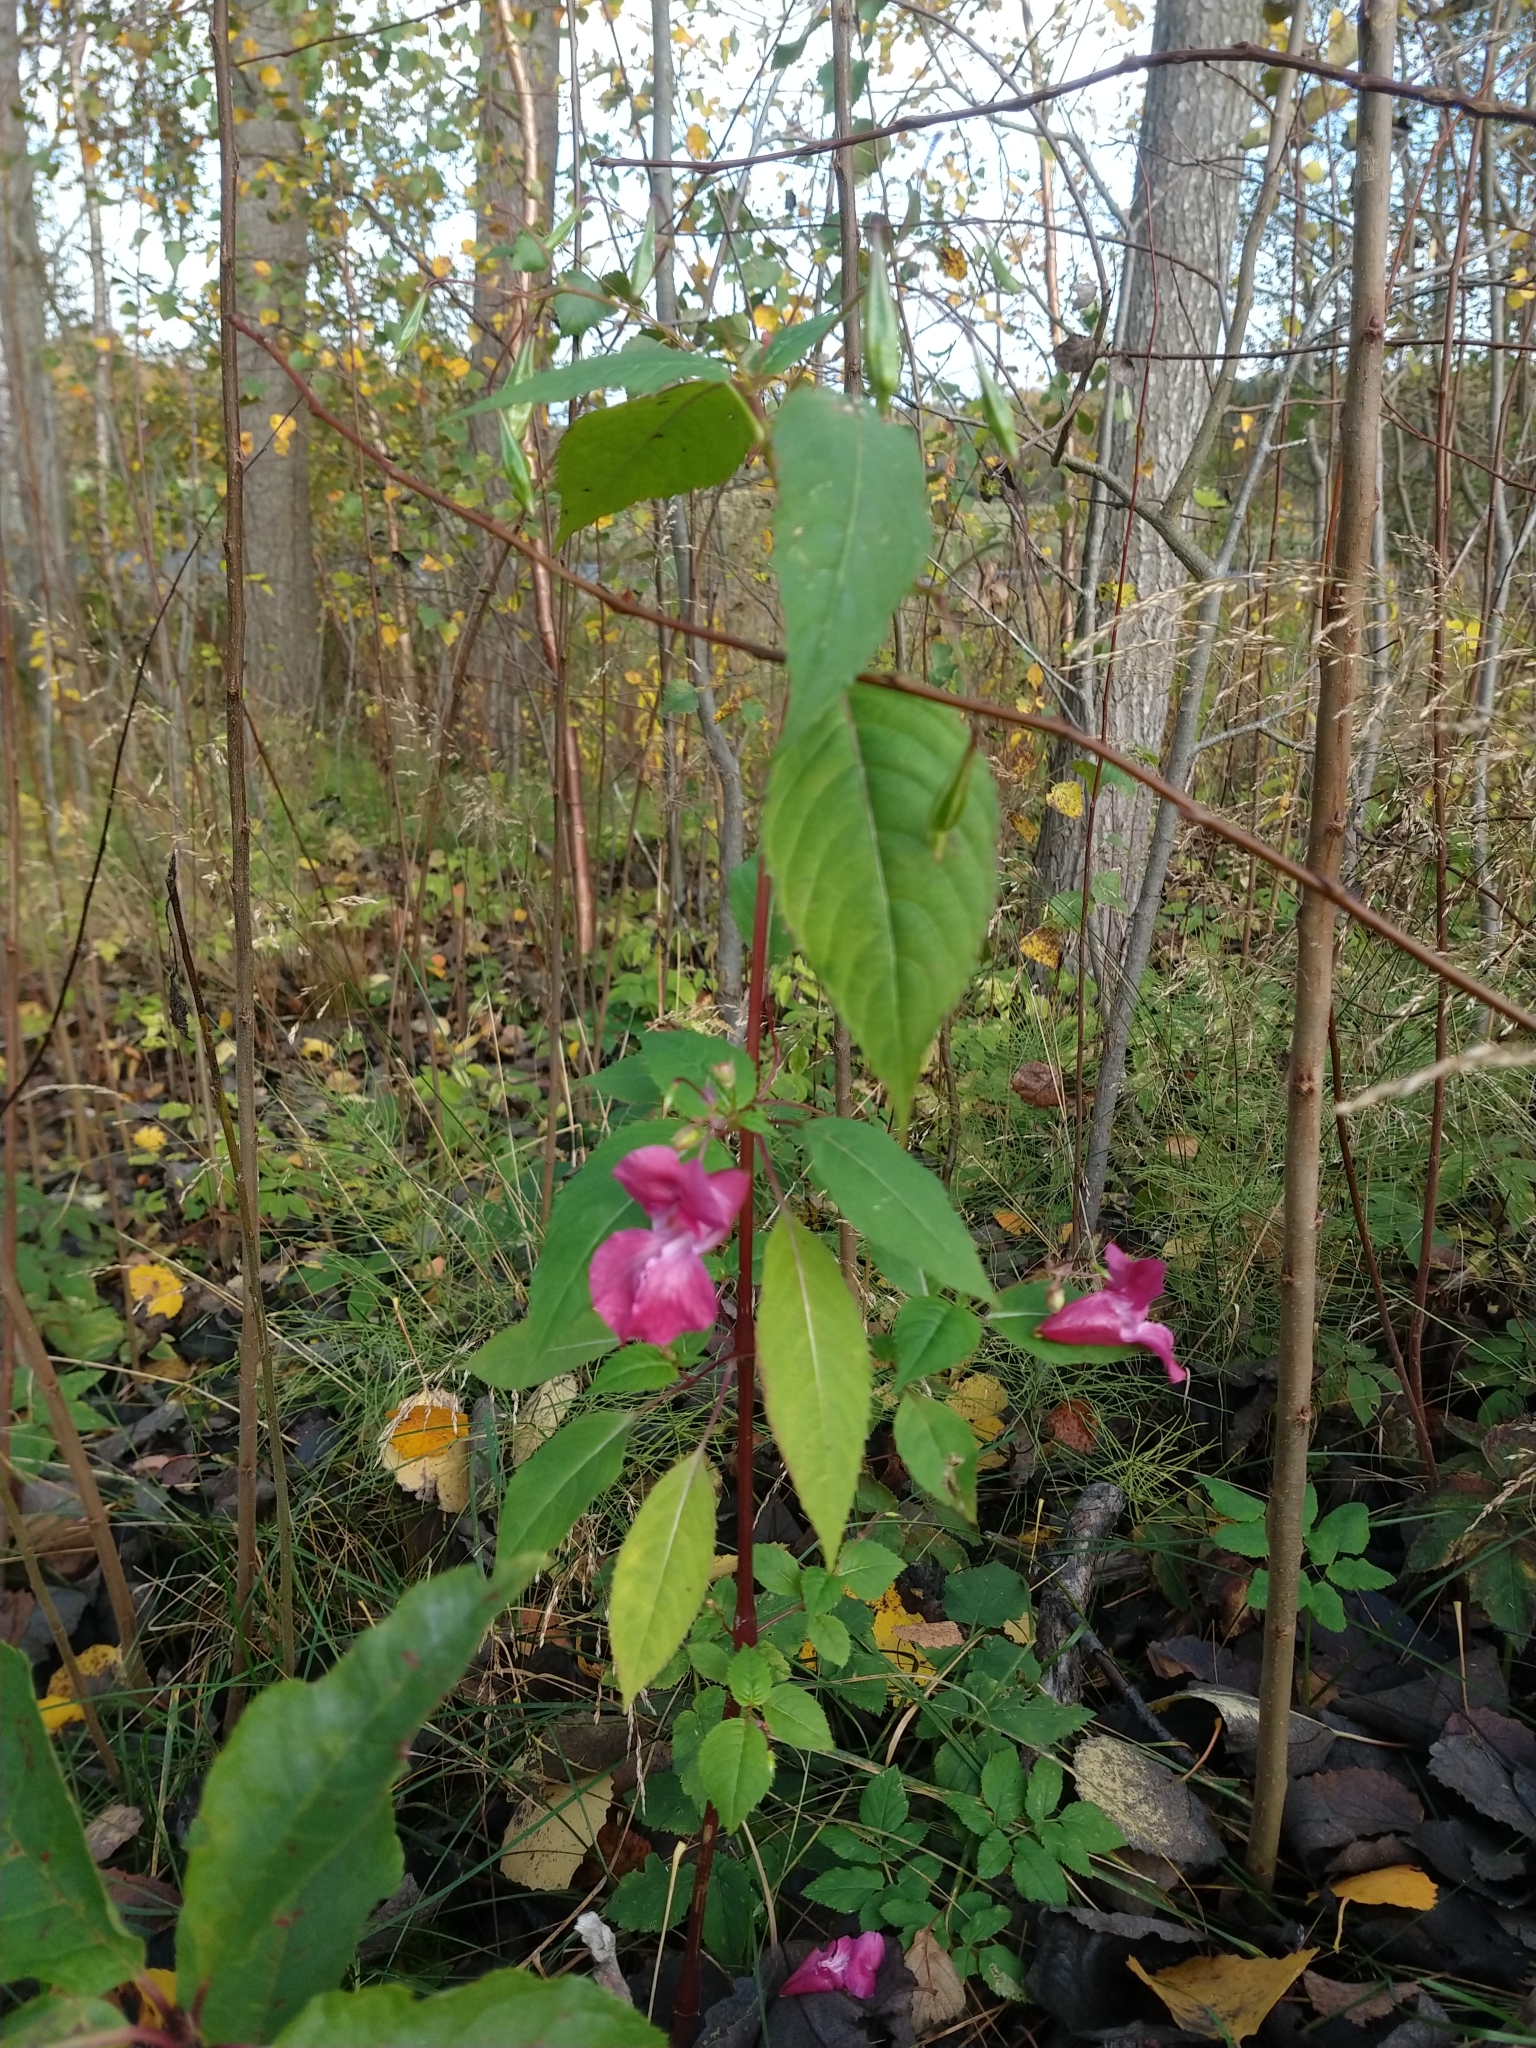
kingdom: Plantae
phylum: Tracheophyta
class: Magnoliopsida
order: Ericales
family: Balsaminaceae
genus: Impatiens
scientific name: Impatiens glandulifera
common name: Himalayan balsam
